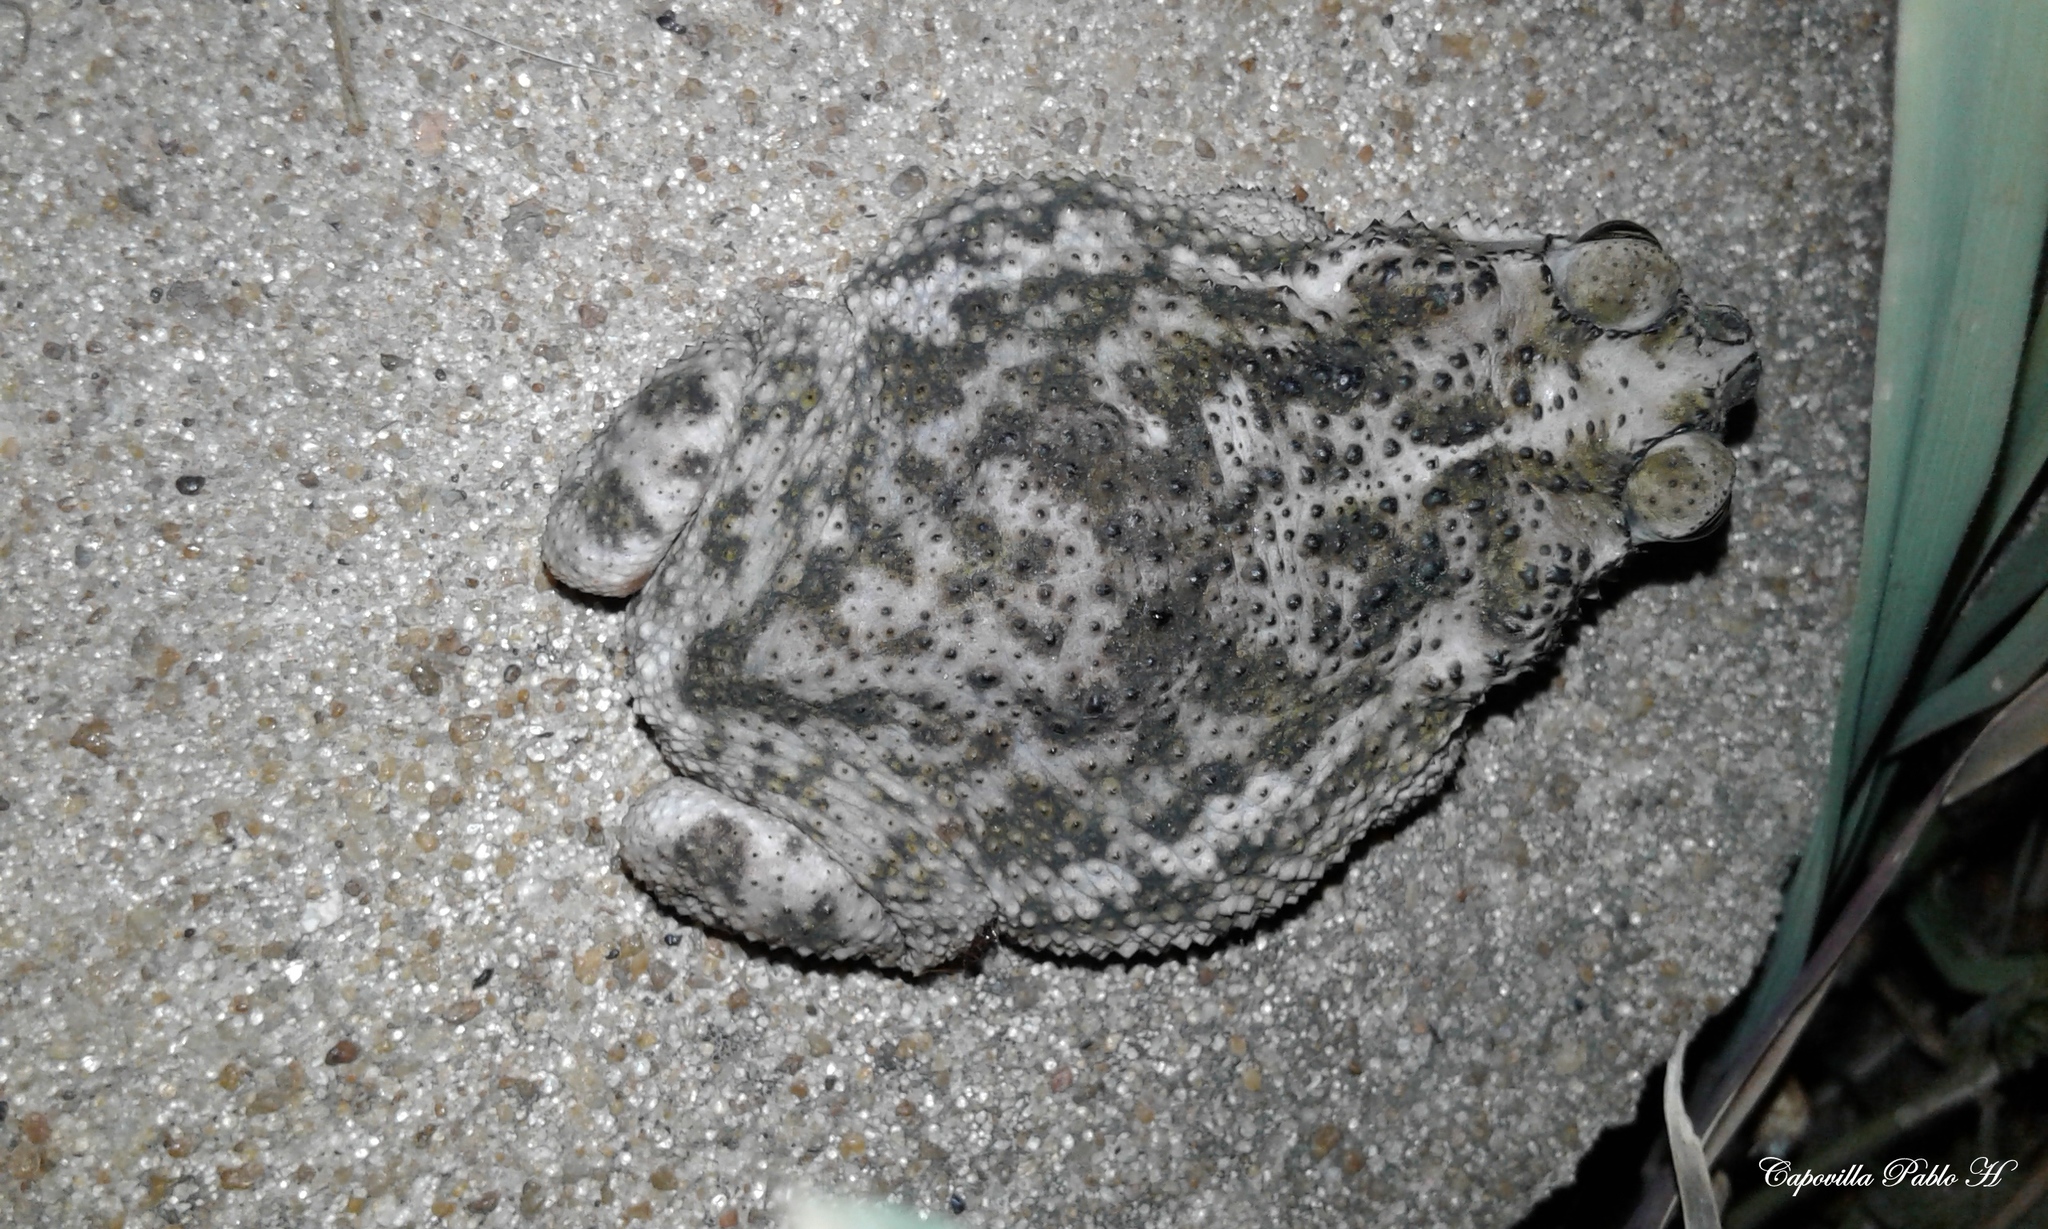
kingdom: Animalia
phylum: Chordata
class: Amphibia
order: Anura
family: Bufonidae
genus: Rhinella
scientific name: Rhinella major
